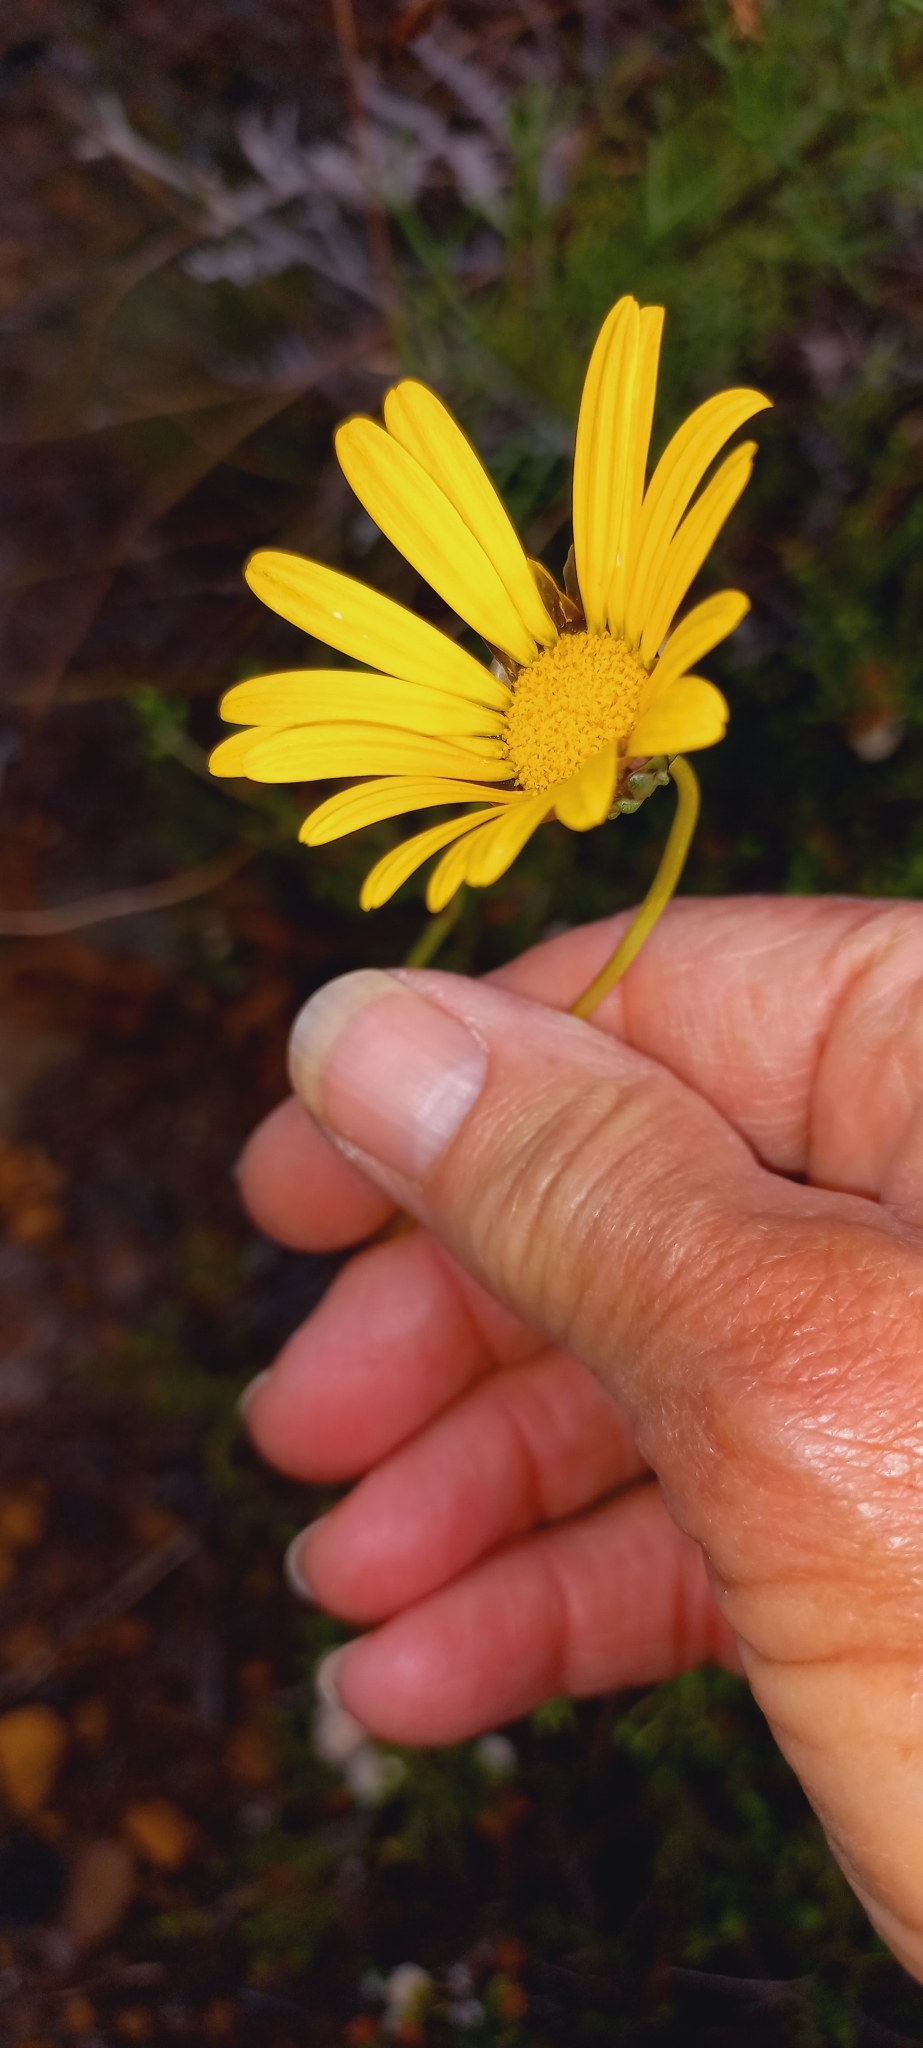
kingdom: Plantae
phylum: Tracheophyta
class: Magnoliopsida
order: Asterales
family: Asteraceae
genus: Ursinia
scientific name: Ursinia paleacea
